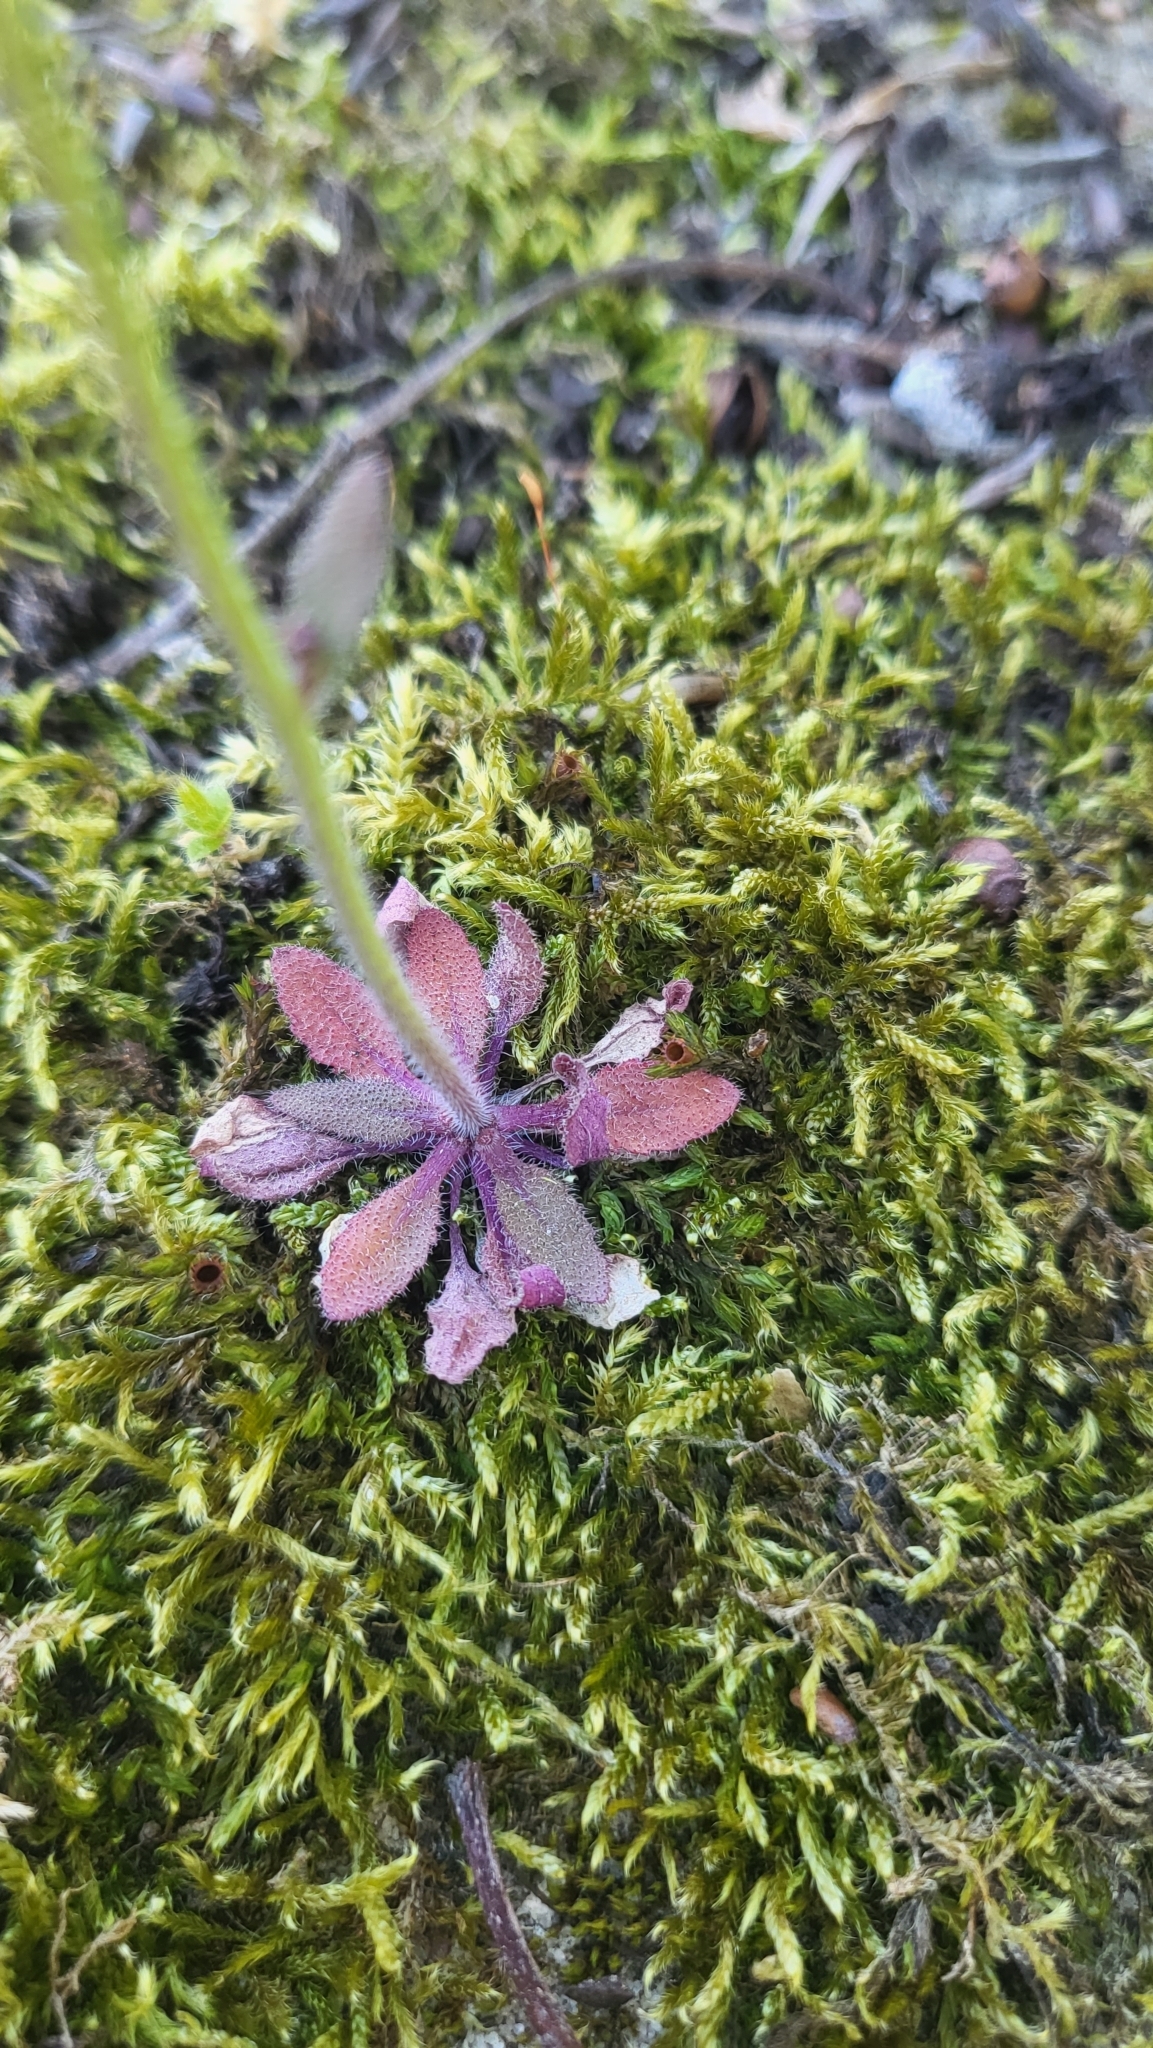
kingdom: Plantae
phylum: Tracheophyta
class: Magnoliopsida
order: Brassicales
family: Brassicaceae
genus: Arabidopsis
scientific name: Arabidopsis thaliana
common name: Thale cress
